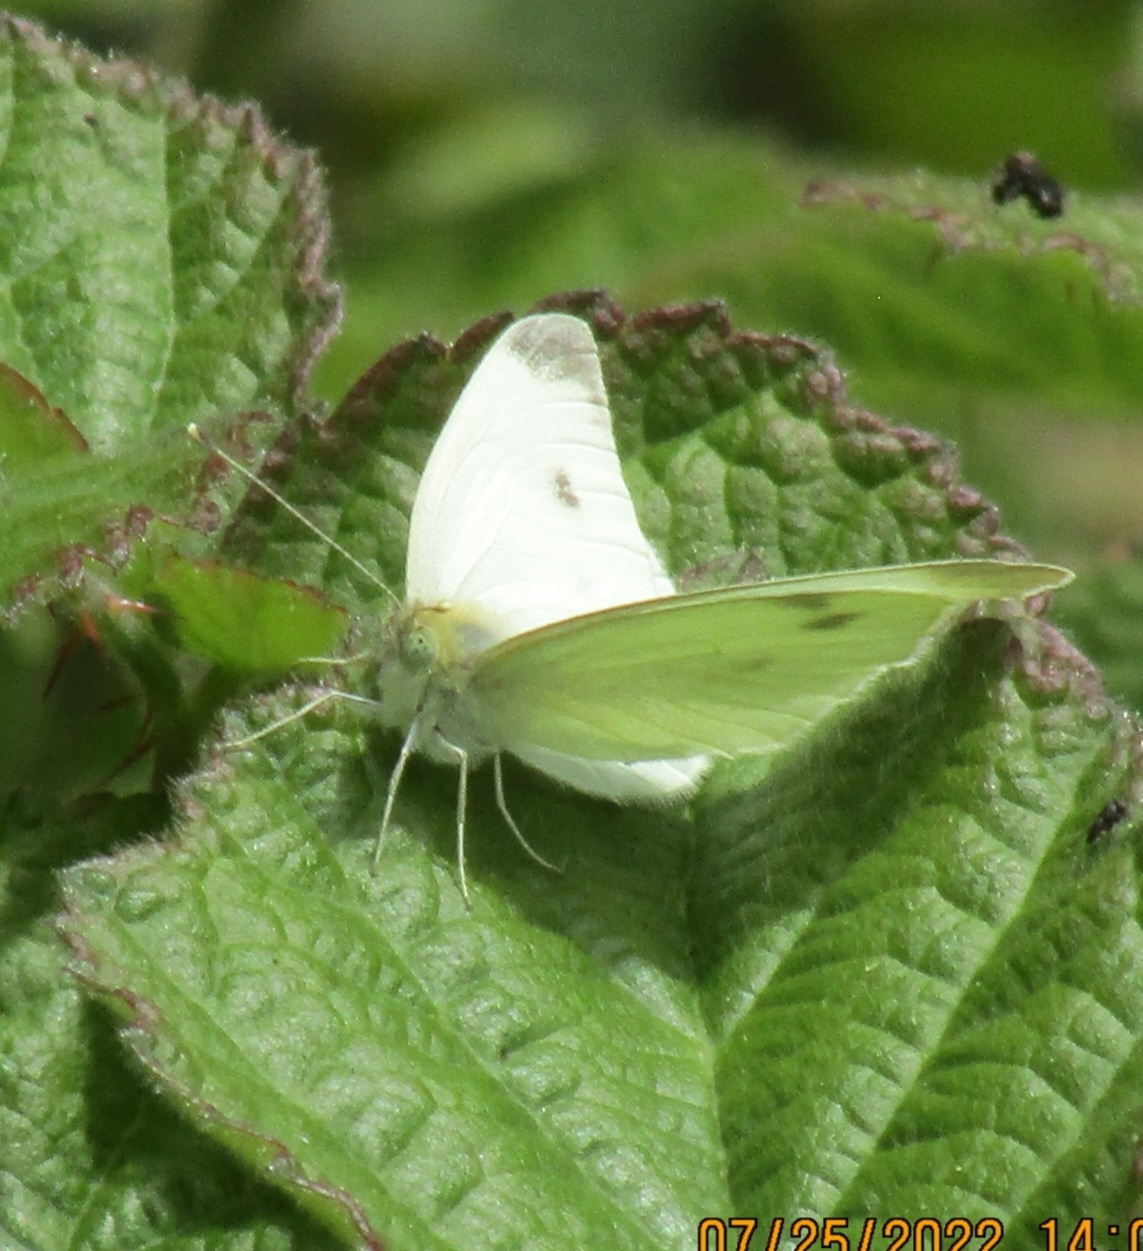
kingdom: Animalia
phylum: Arthropoda
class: Insecta
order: Lepidoptera
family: Pieridae
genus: Pieris
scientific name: Pieris rapae
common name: Small white
